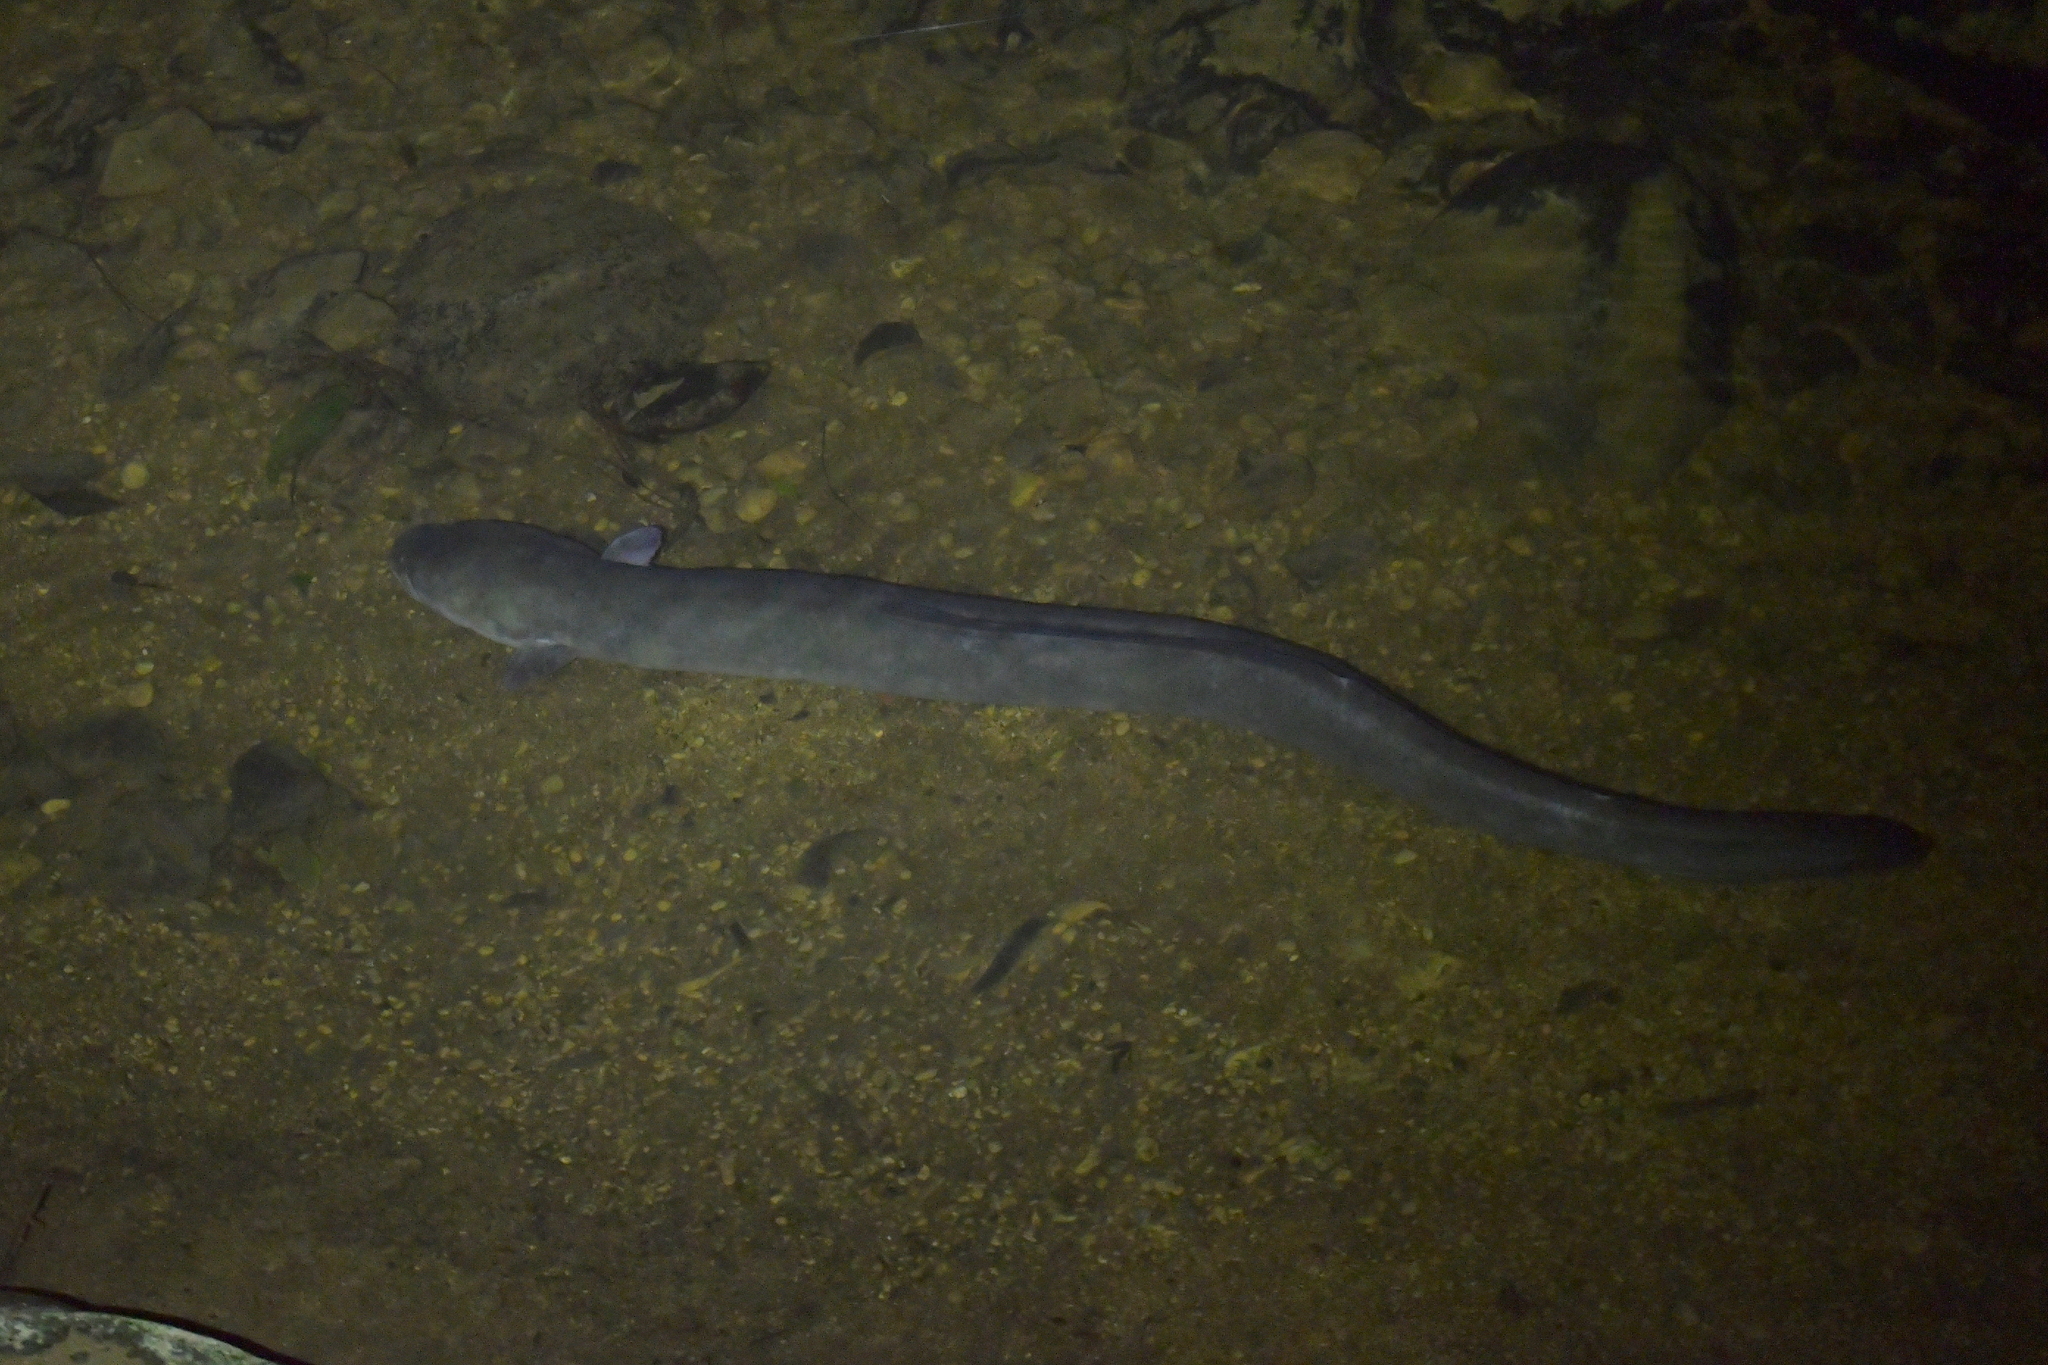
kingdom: Animalia
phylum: Chordata
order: Anguilliformes
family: Anguillidae
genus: Anguilla
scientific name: Anguilla dieffenbachii
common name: New zealand longfin eel
